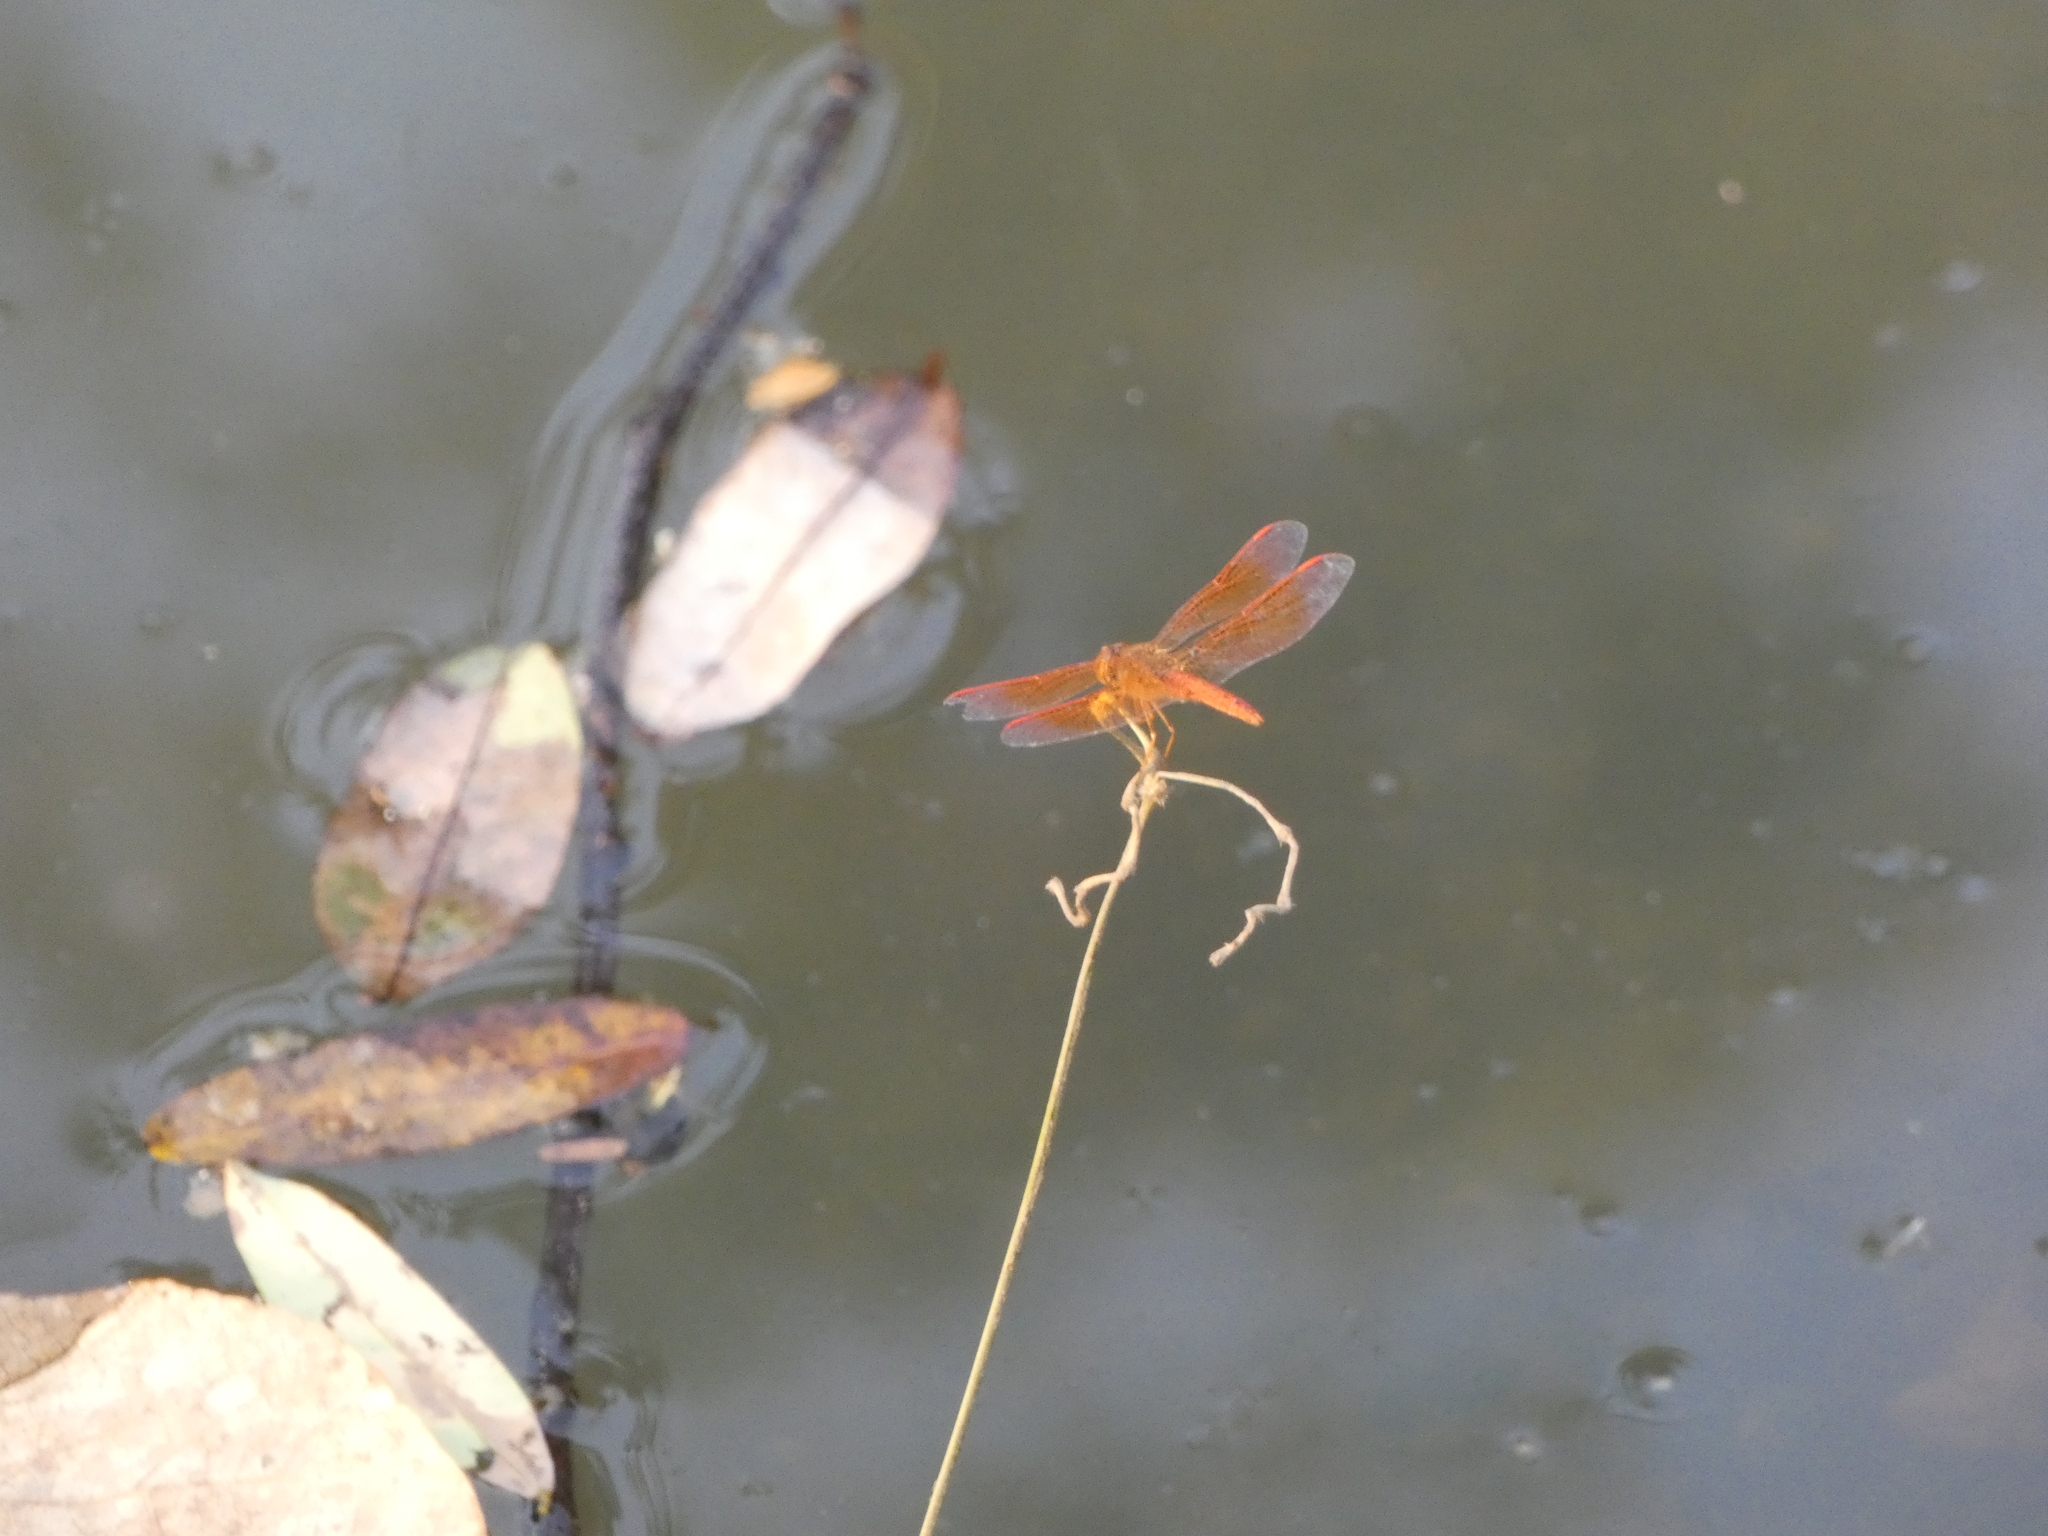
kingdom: Animalia
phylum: Arthropoda
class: Insecta
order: Odonata
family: Libellulidae
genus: Brachythemis
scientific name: Brachythemis contaminata
